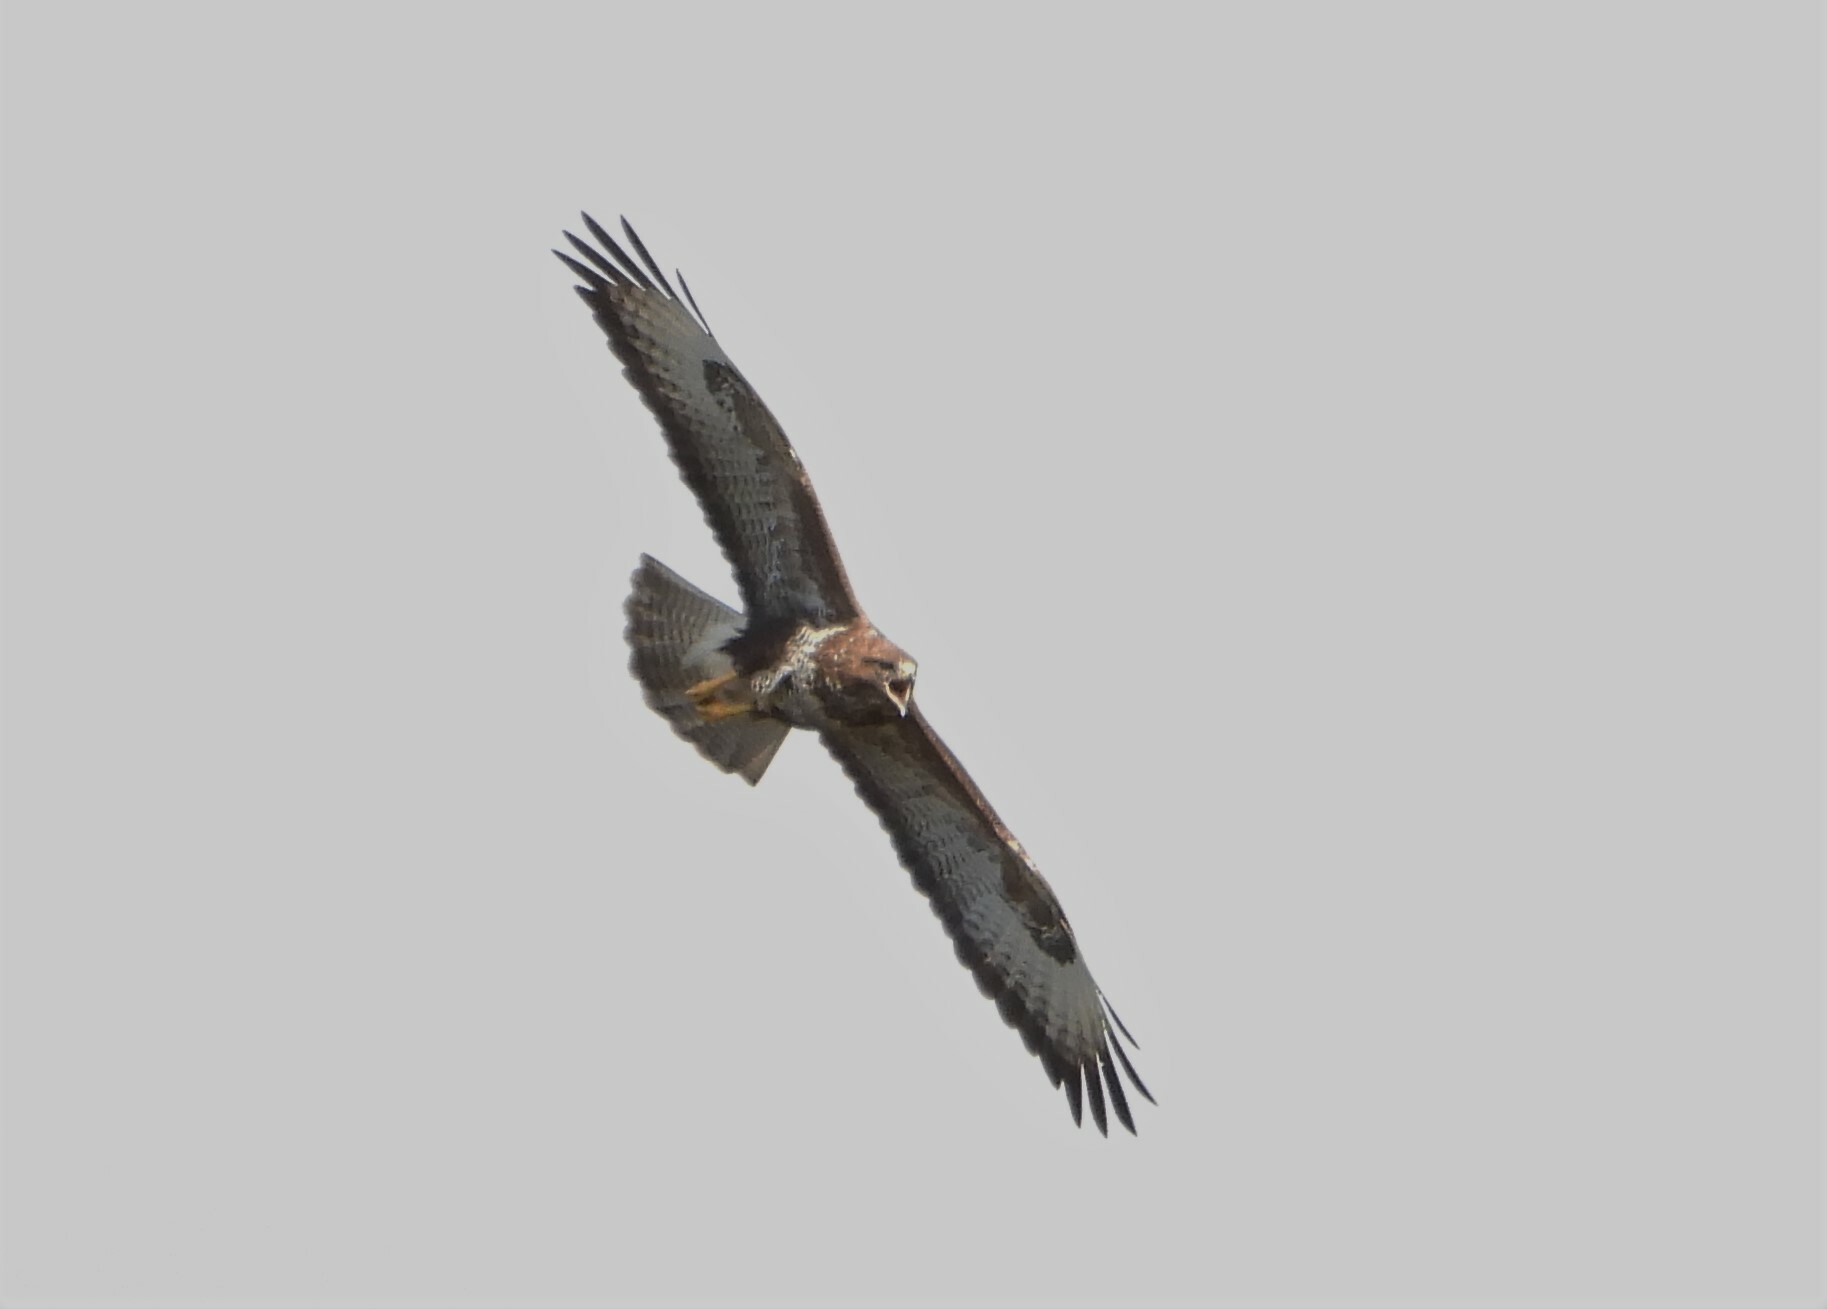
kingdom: Animalia
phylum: Chordata
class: Aves
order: Accipitriformes
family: Accipitridae
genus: Buteo
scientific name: Buteo buteo
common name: Common buzzard
